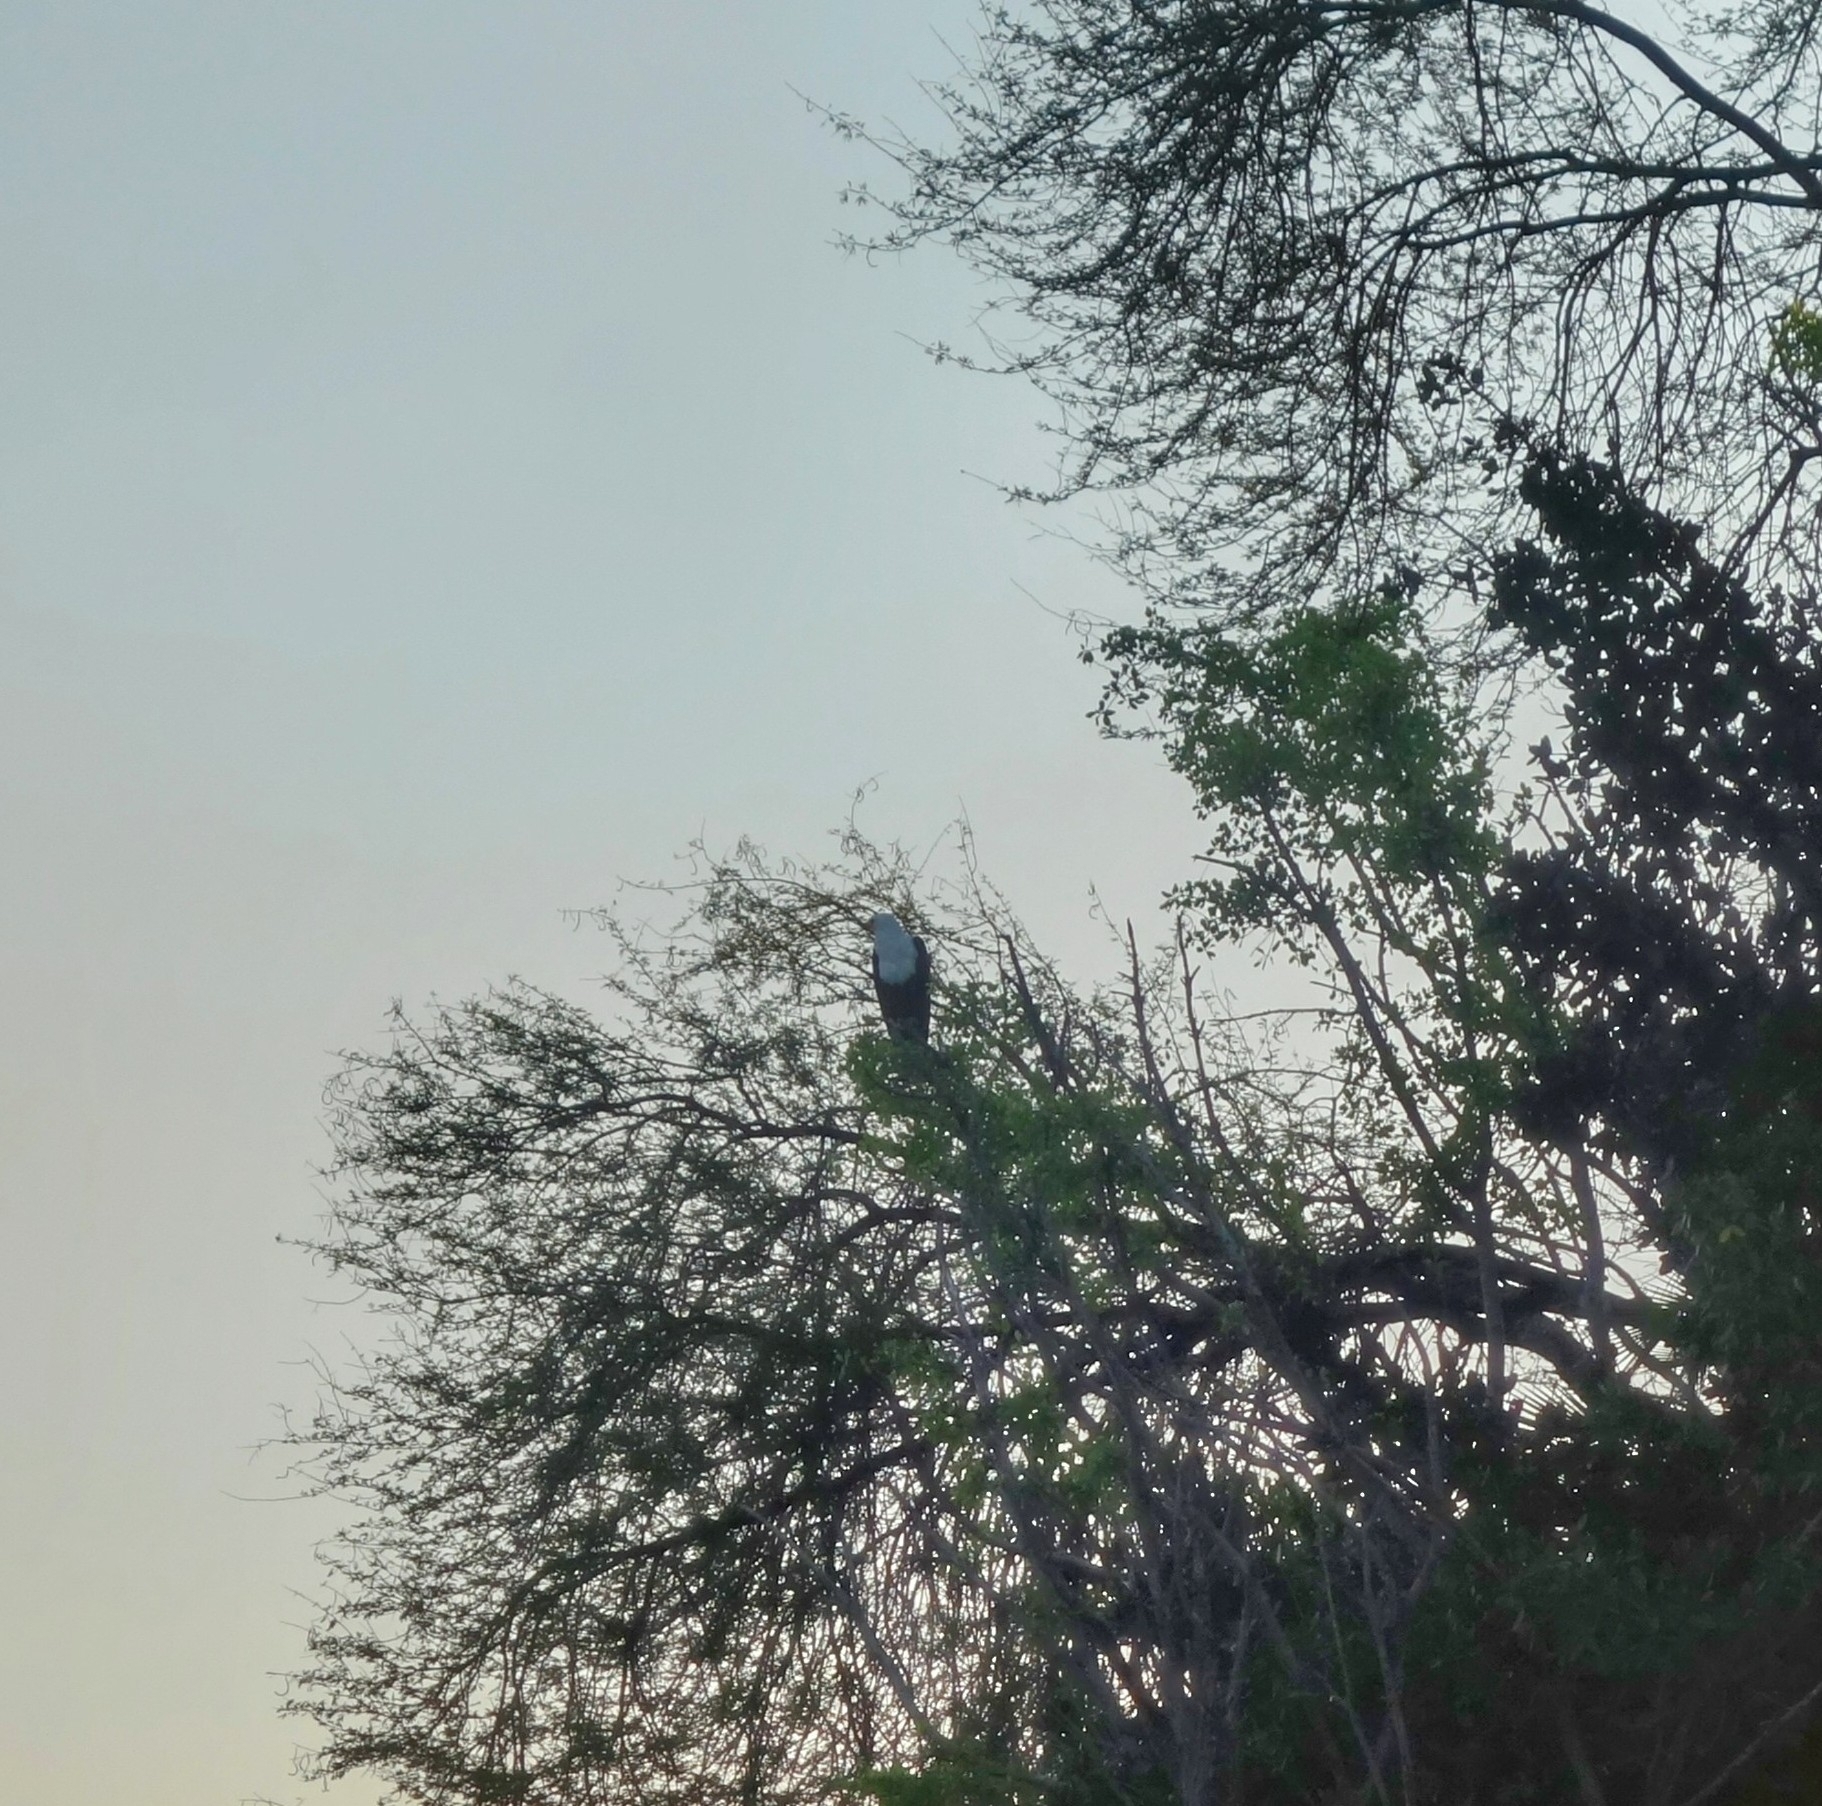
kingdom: Animalia
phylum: Chordata
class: Aves
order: Accipitriformes
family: Accipitridae
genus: Haliaeetus
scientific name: Haliaeetus vocifer
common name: African fish eagle
